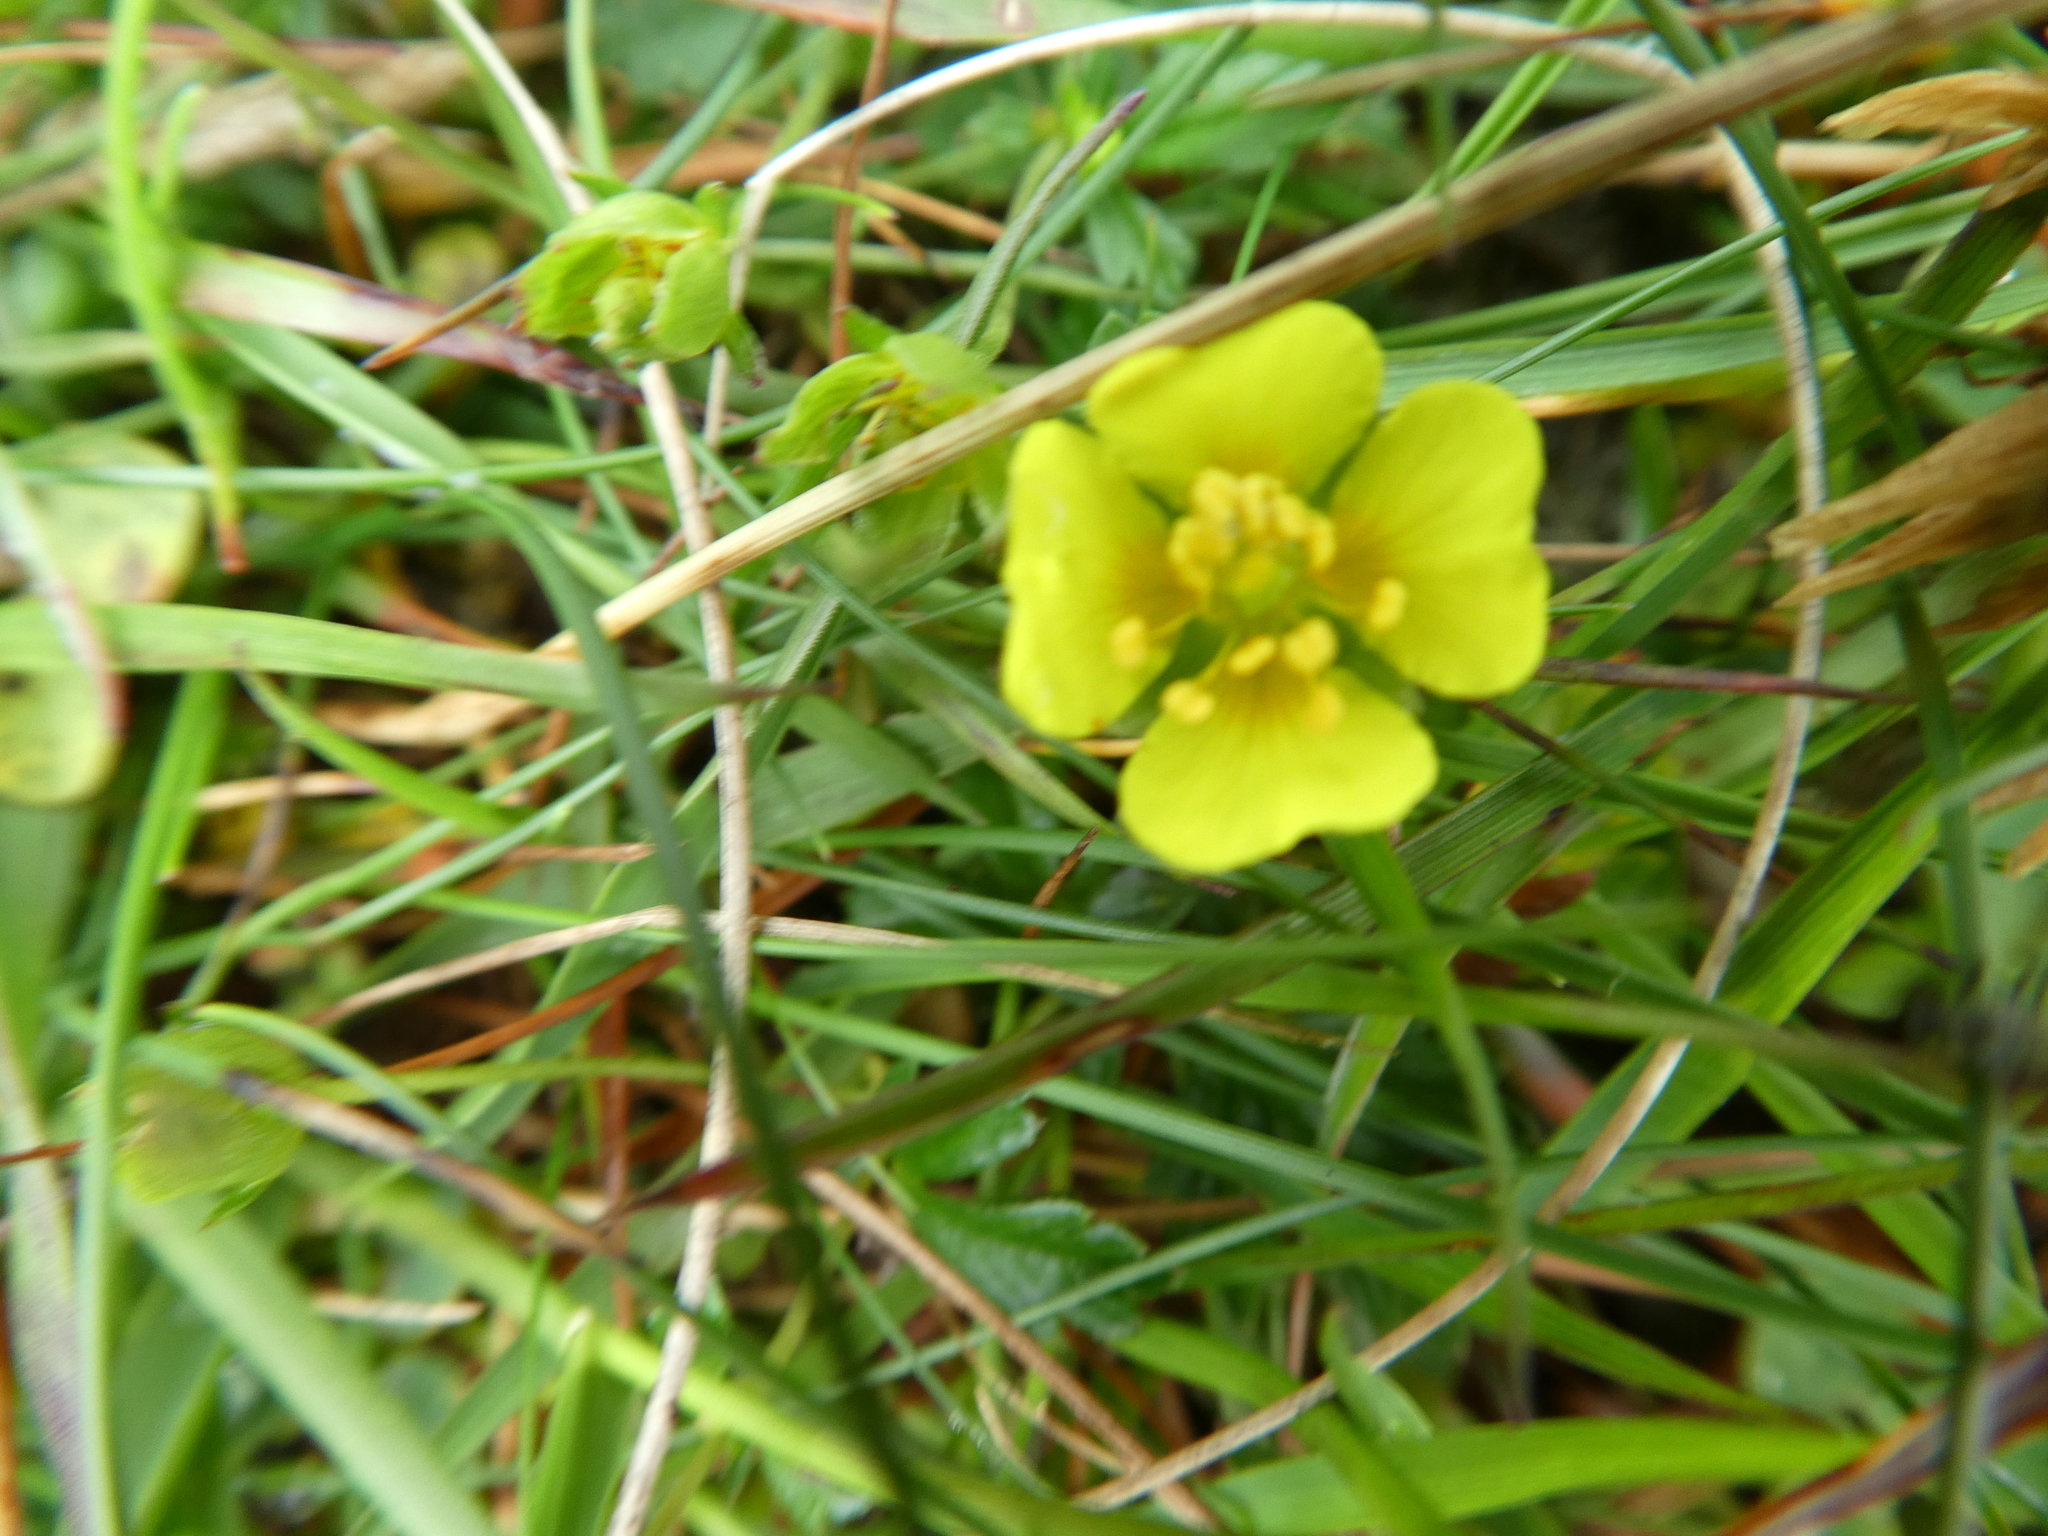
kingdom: Plantae
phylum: Tracheophyta
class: Magnoliopsida
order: Rosales
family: Rosaceae
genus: Potentilla
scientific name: Potentilla erecta
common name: Tormentil
